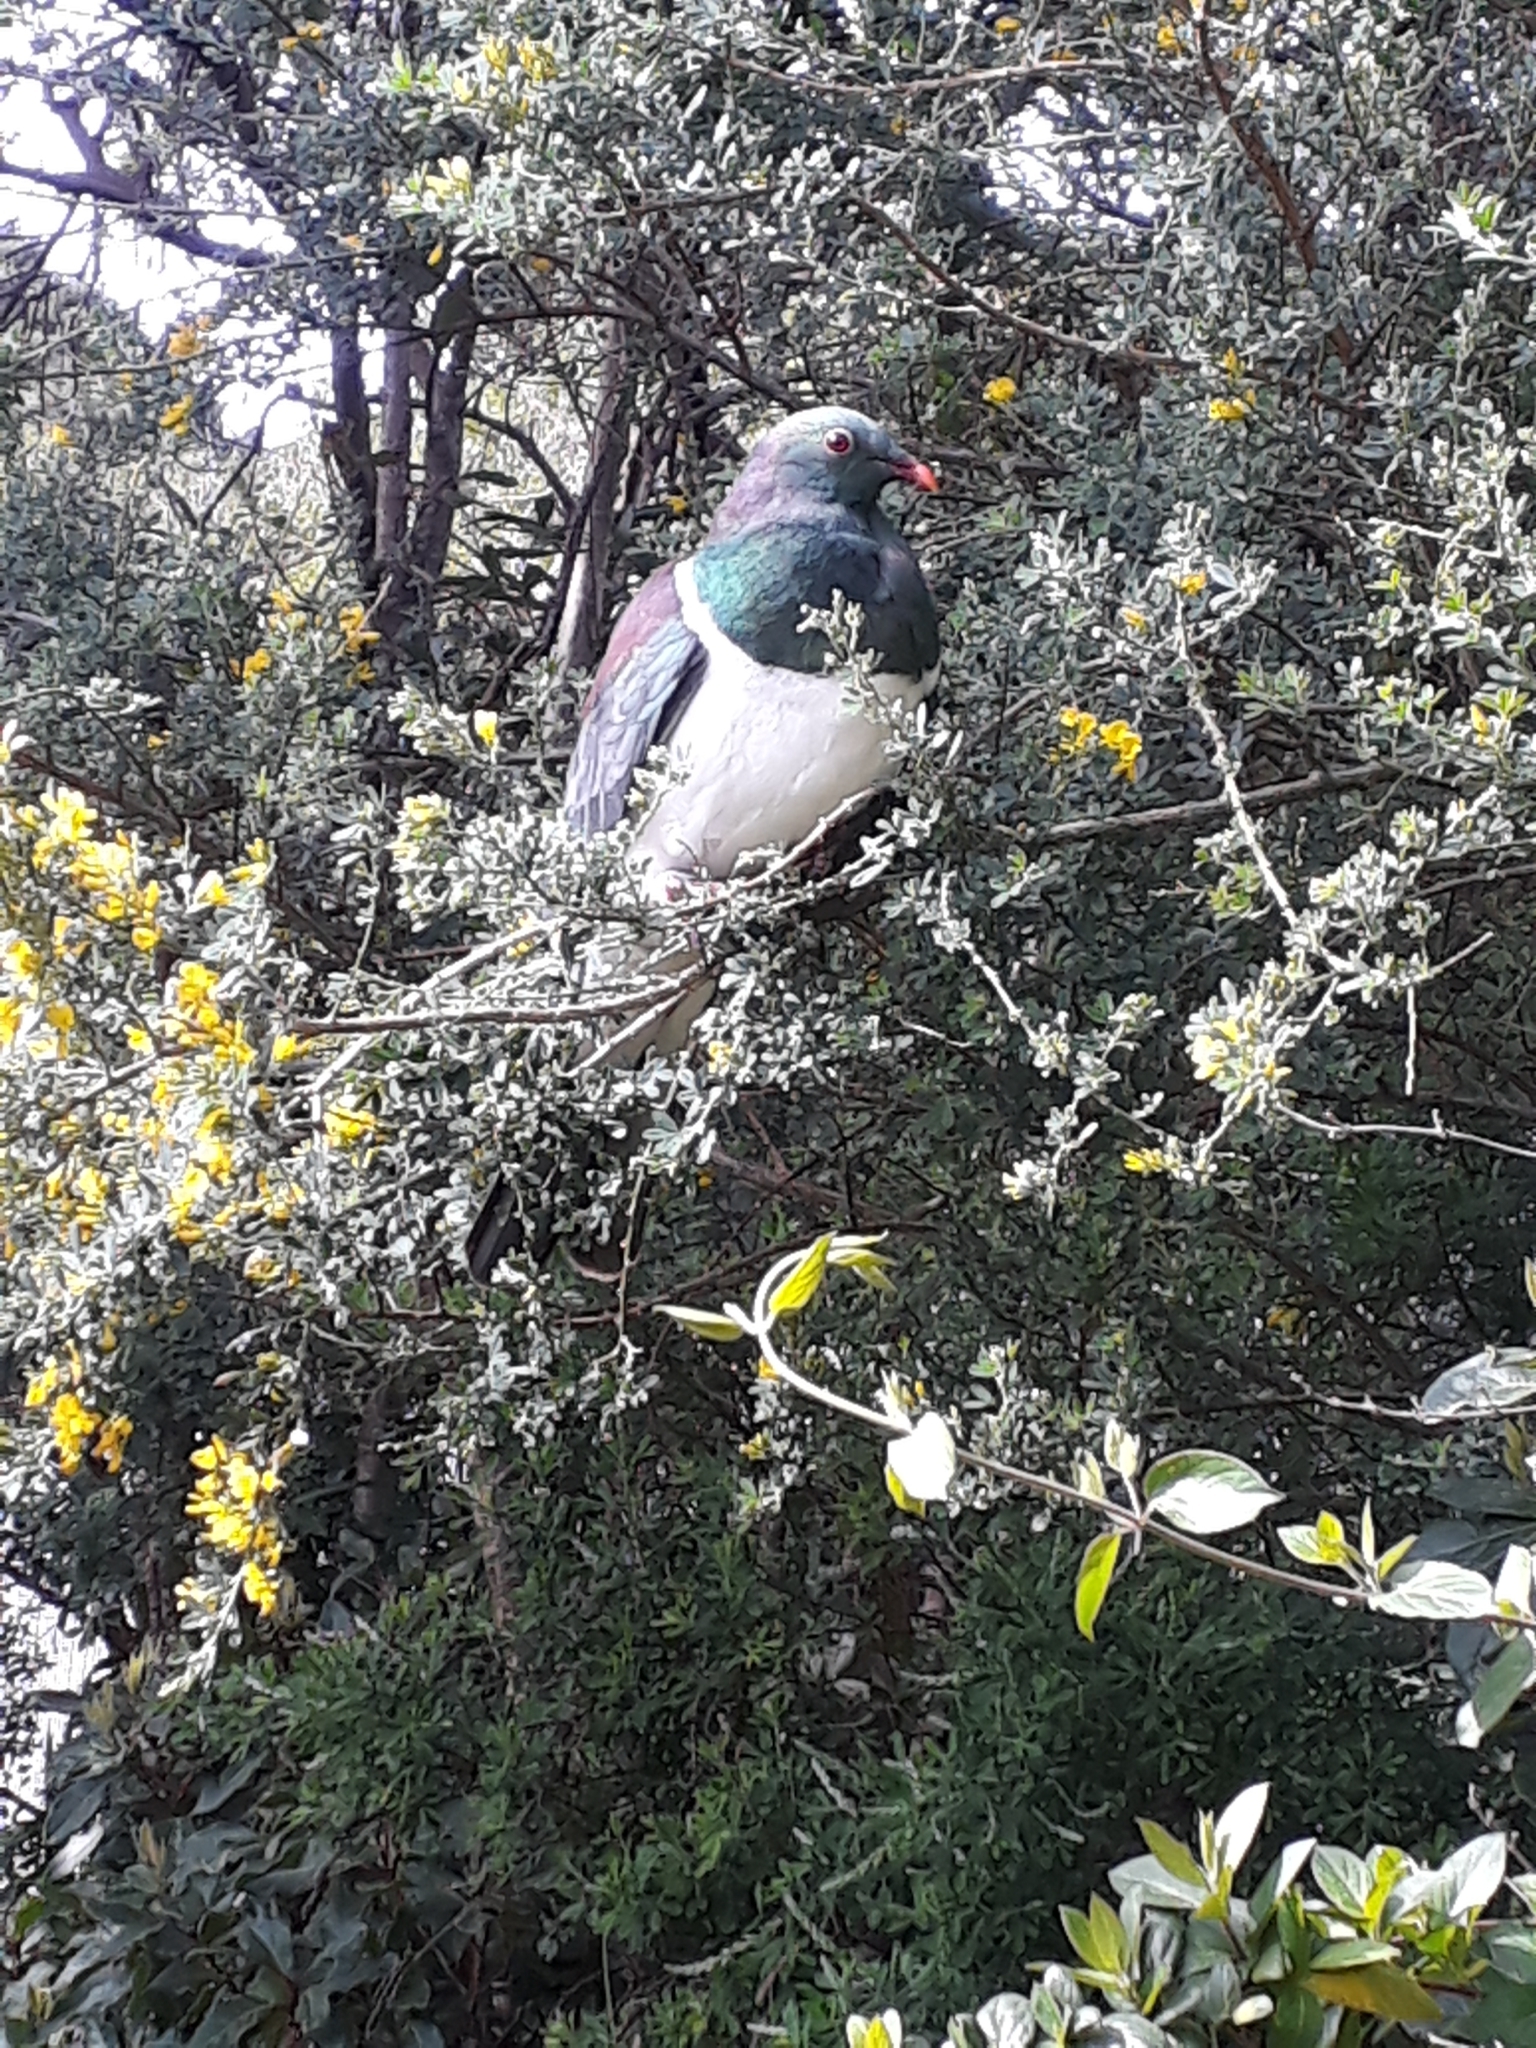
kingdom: Animalia
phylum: Chordata
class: Aves
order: Columbiformes
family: Columbidae
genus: Hemiphaga
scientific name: Hemiphaga novaeseelandiae
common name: New zealand pigeon
